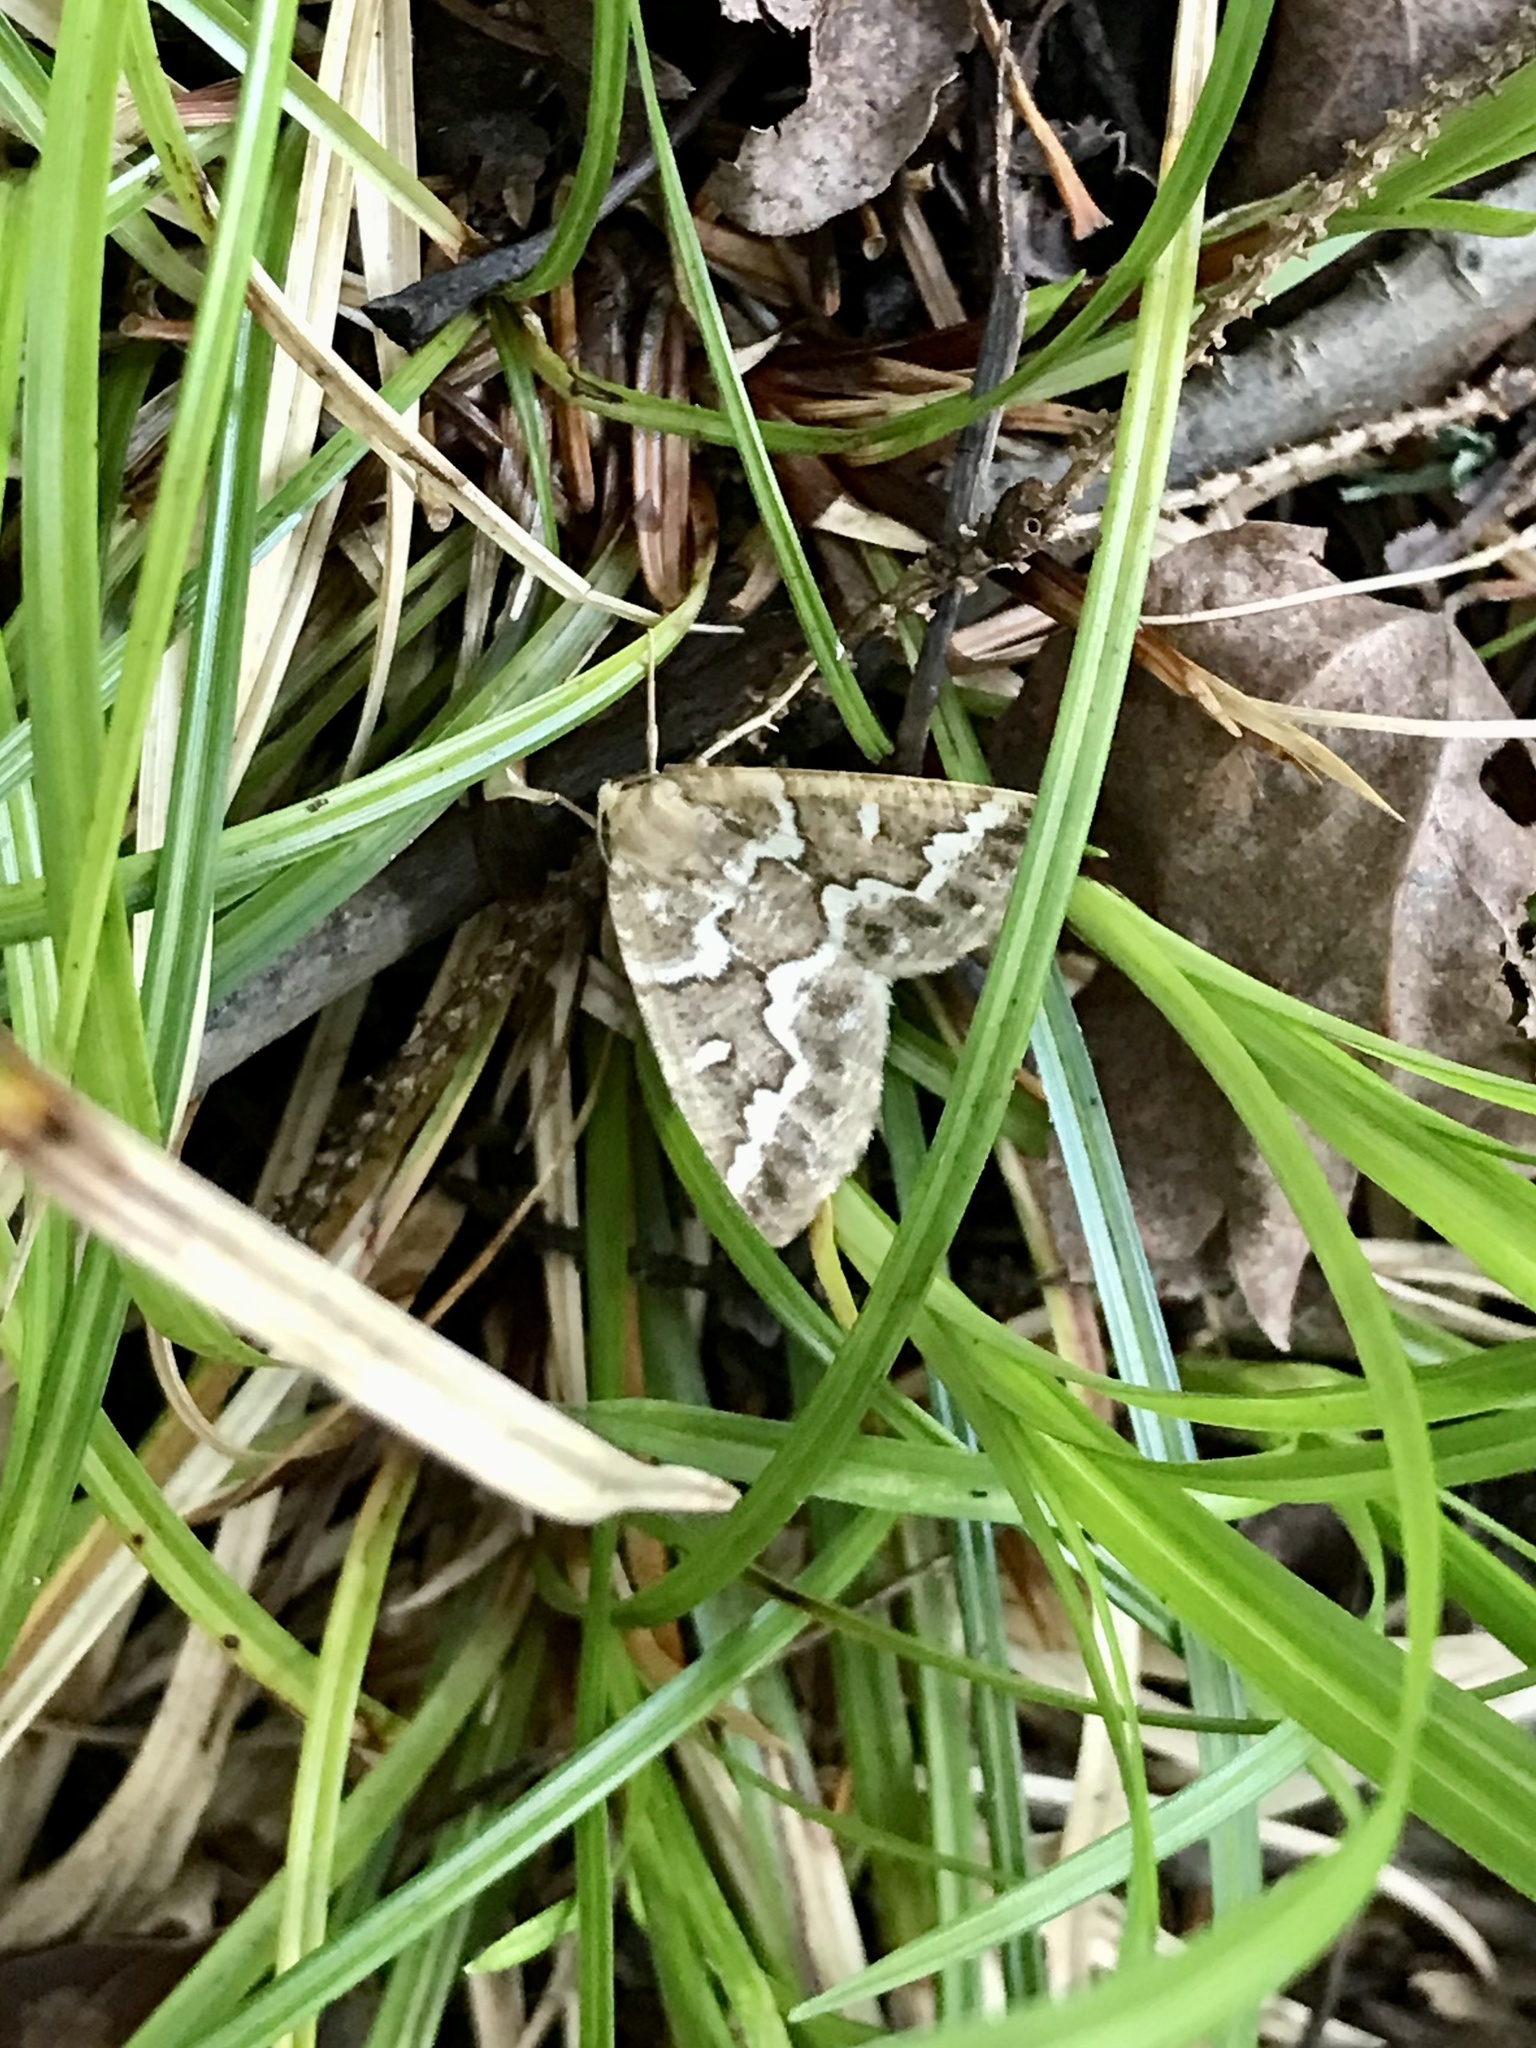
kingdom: Animalia
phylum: Arthropoda
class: Insecta
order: Lepidoptera
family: Geometridae
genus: Caripeta
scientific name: Caripeta divisata
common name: Gray spruce looper
